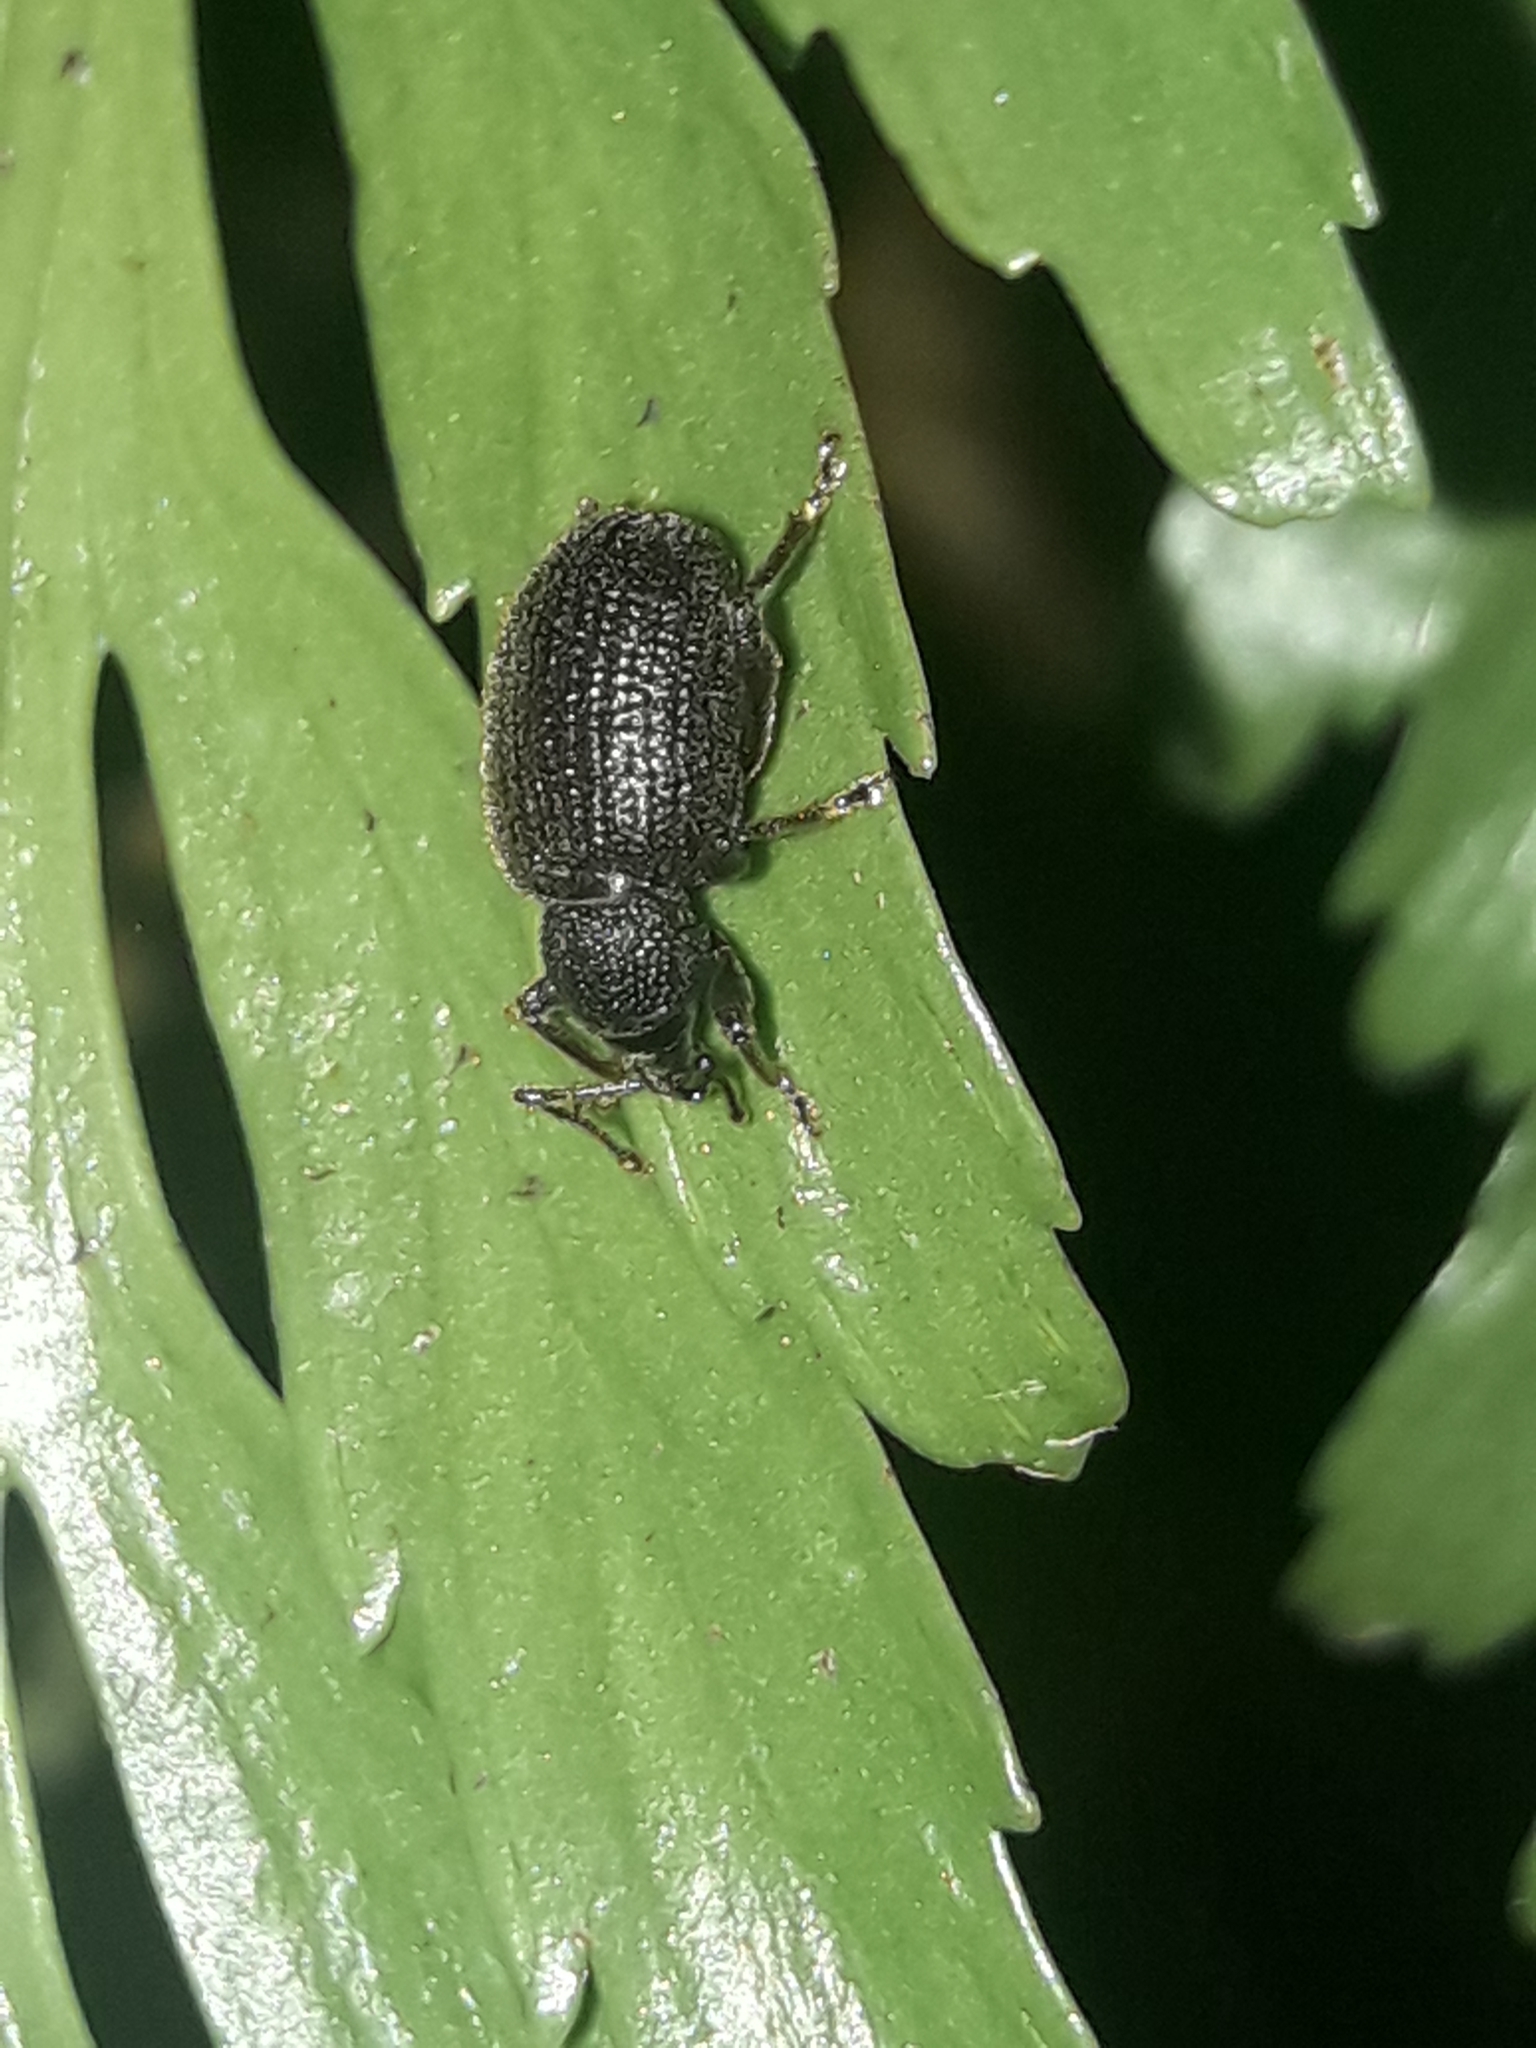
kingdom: Animalia
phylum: Arthropoda
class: Insecta
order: Coleoptera
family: Curculionidae
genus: Otiorhynchus
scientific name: Otiorhynchus rugosostriatus
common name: Weevil
